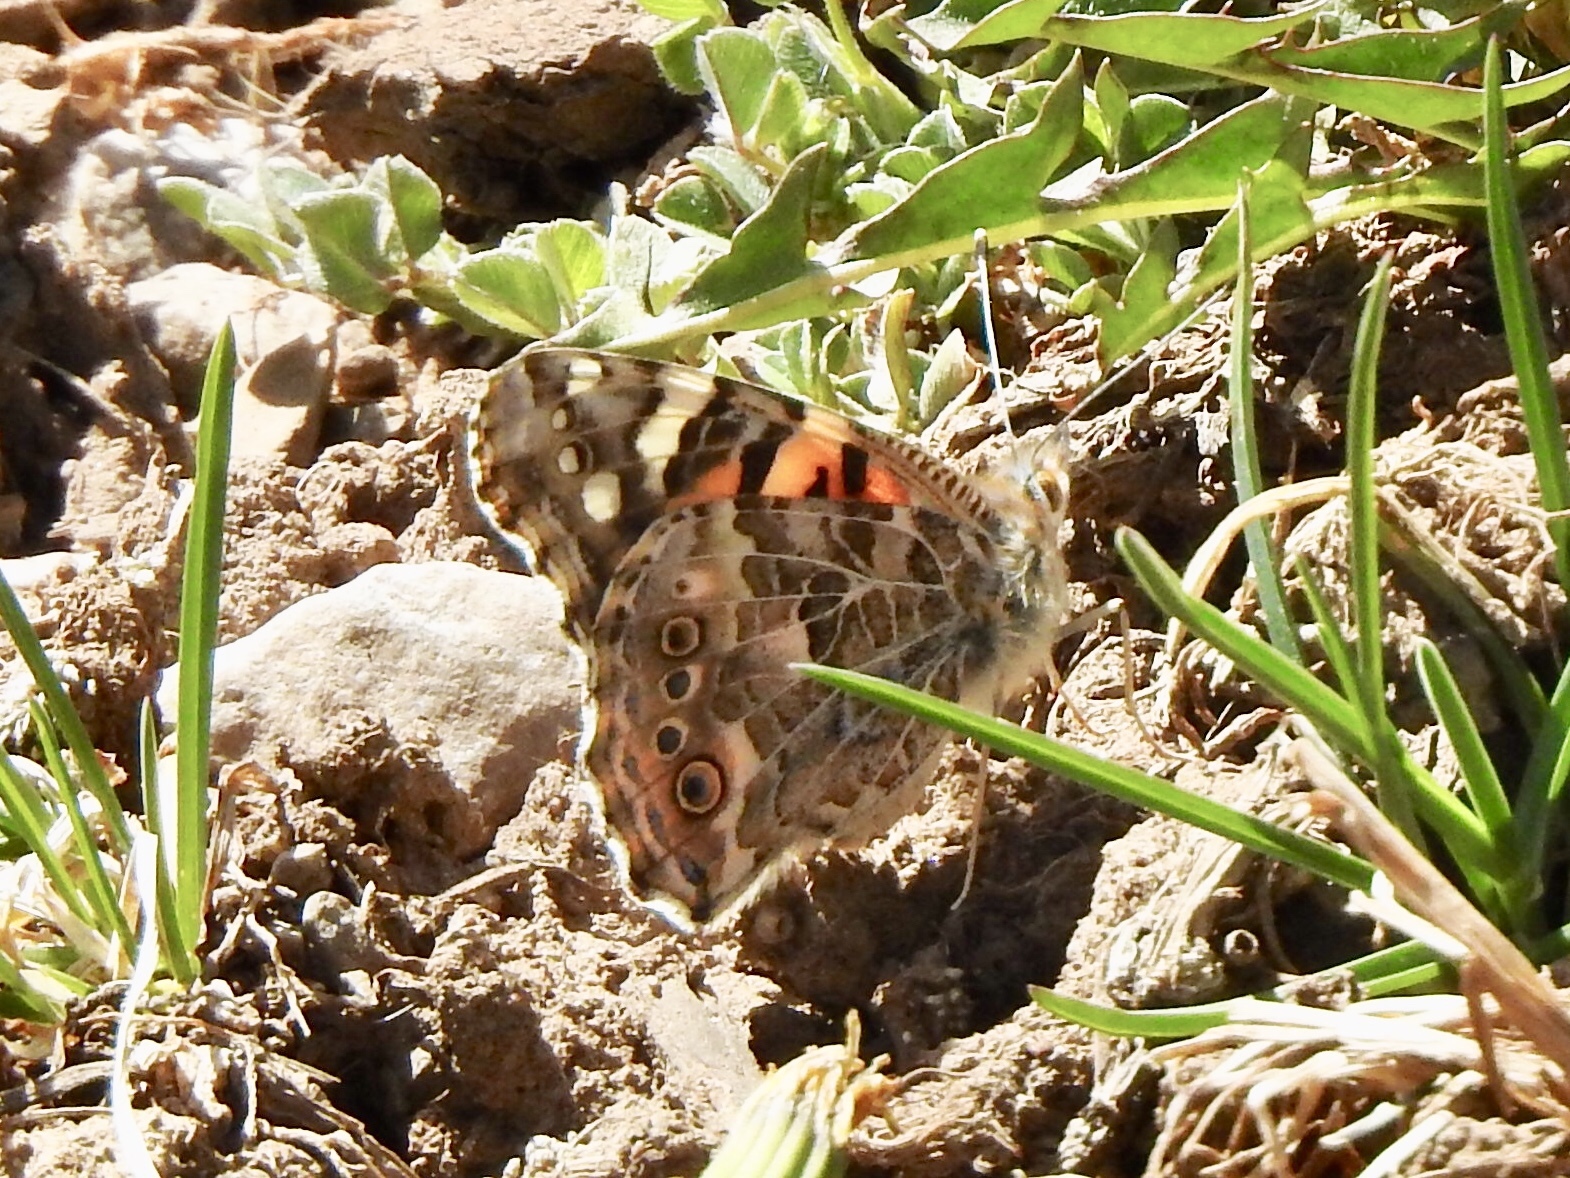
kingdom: Animalia
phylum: Arthropoda
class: Insecta
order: Lepidoptera
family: Nymphalidae
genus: Vanessa
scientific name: Vanessa cardui
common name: Painted lady
